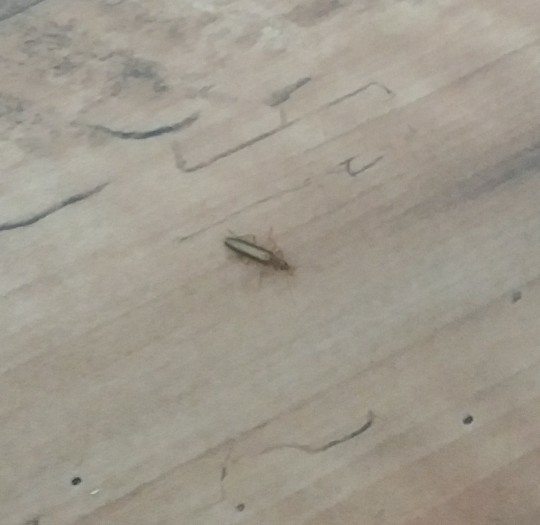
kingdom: Animalia
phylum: Arthropoda
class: Insecta
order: Coleoptera
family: Oedemeridae
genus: Thelyphassa
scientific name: Thelyphassa
